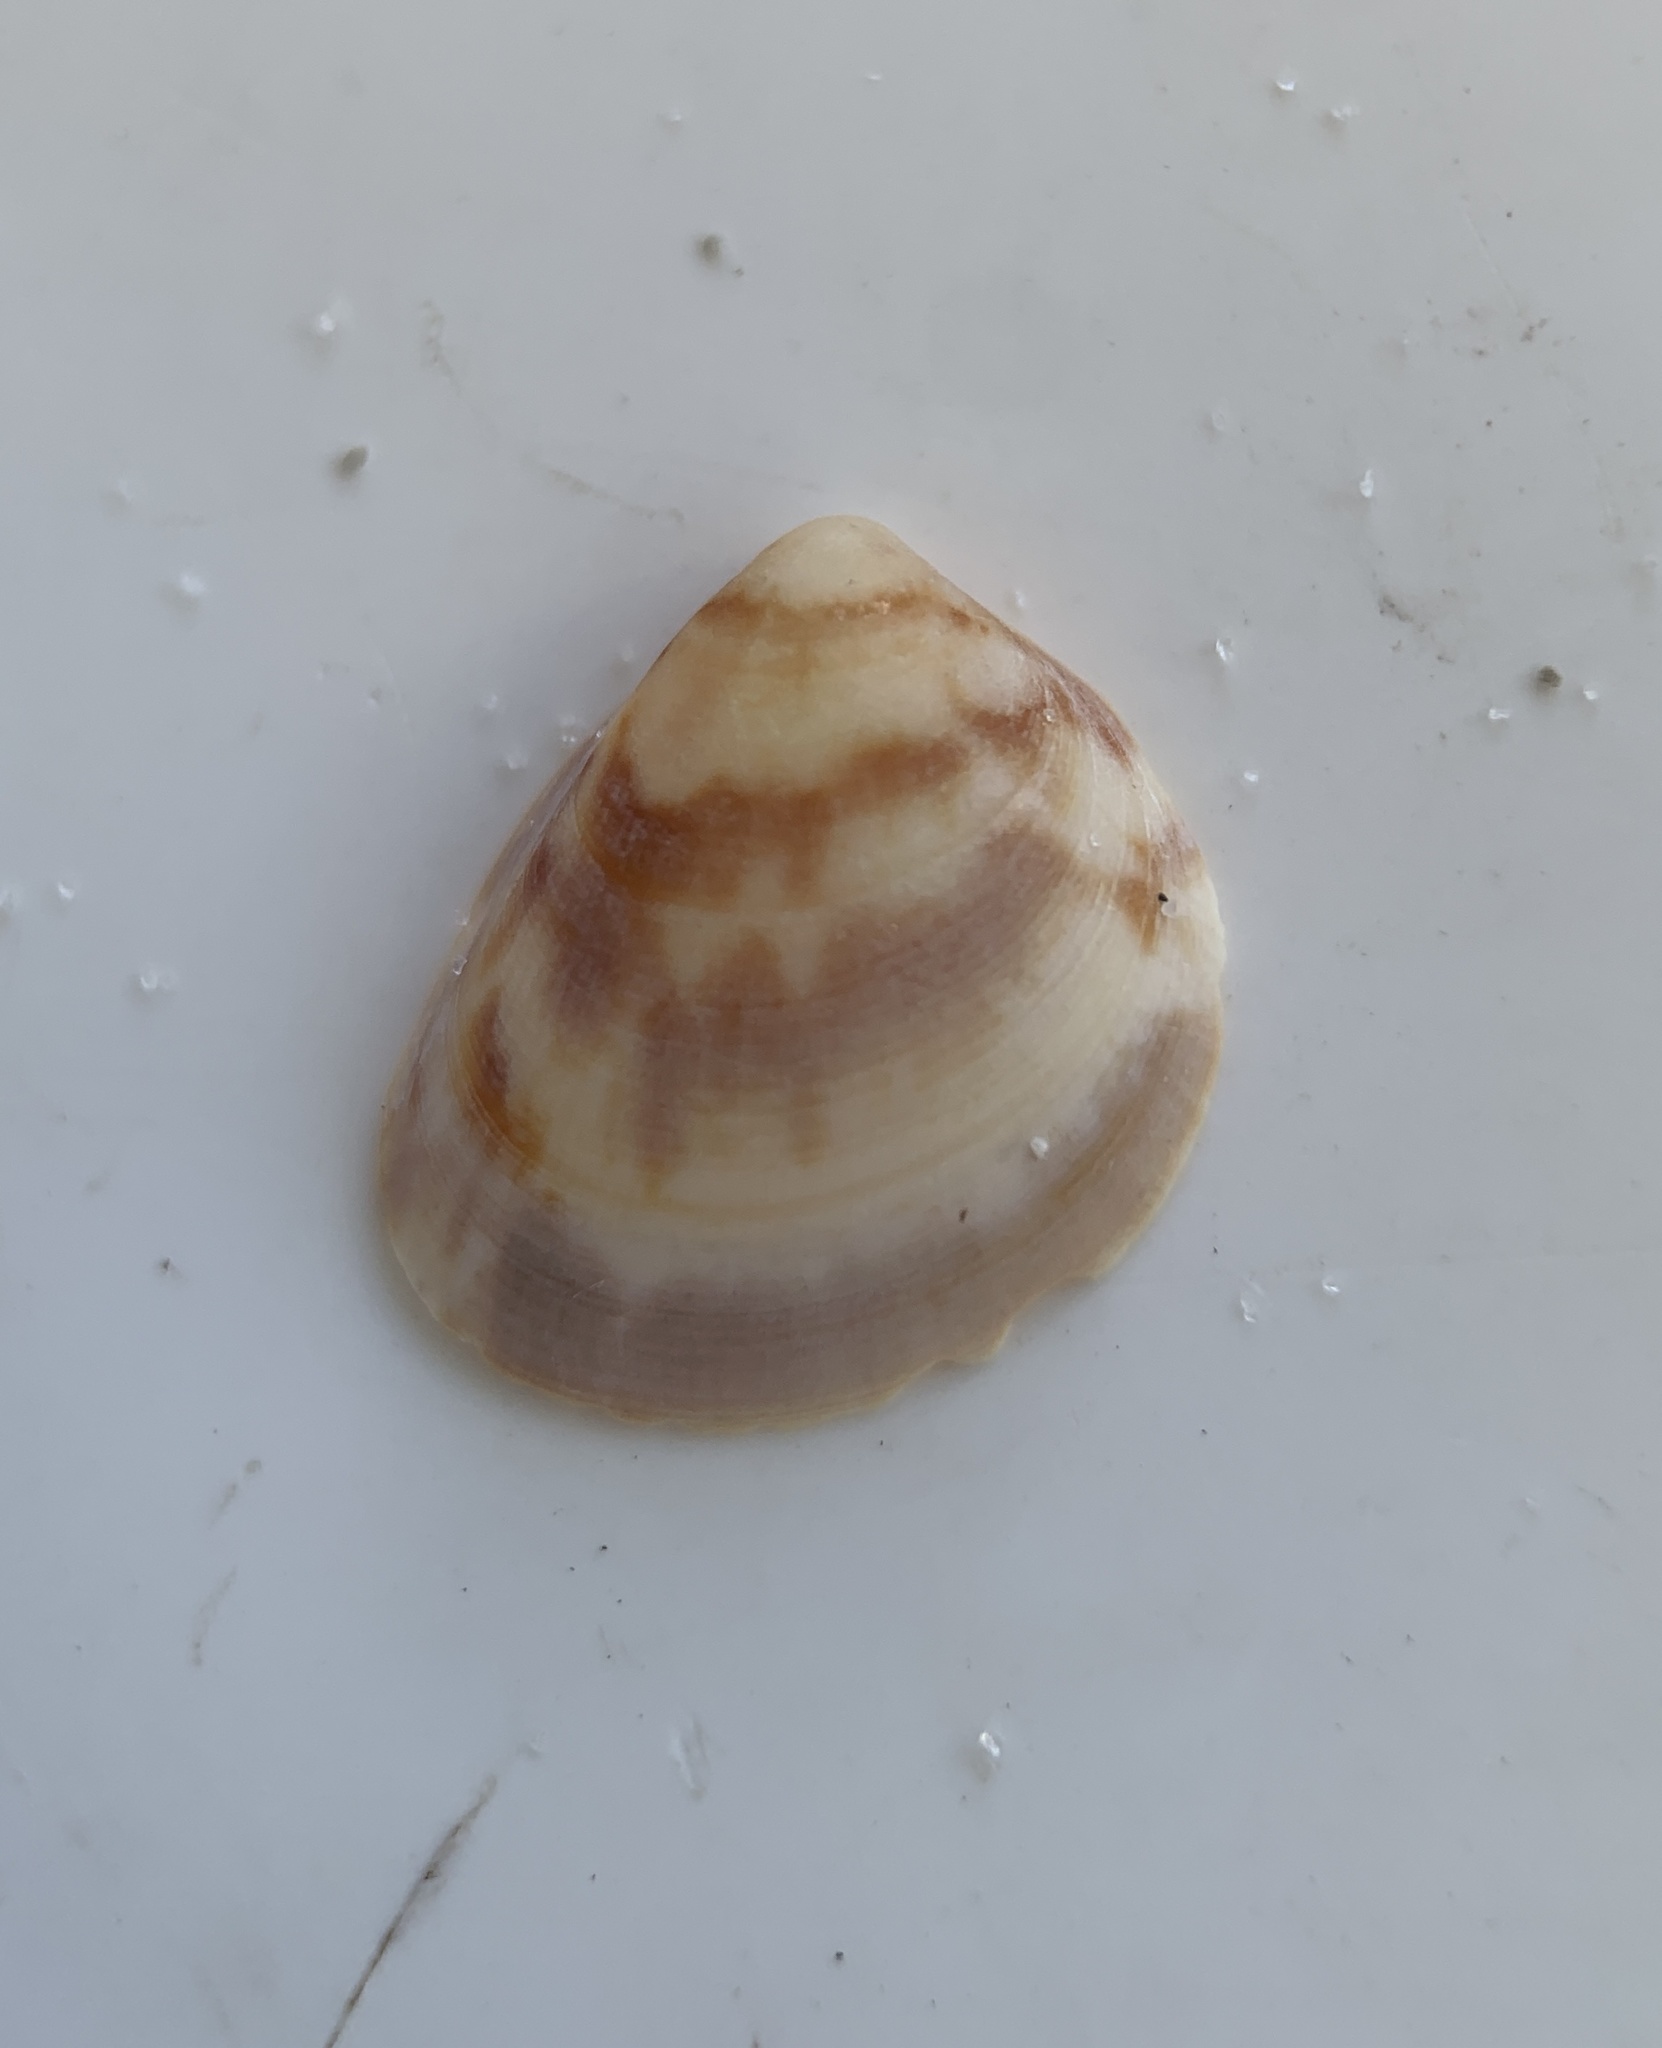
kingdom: Animalia
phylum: Mollusca
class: Bivalvia
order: Cardiida
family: Cardiidae
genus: Laevicardium
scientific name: Laevicardium pictum
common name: Painted eggcockle
